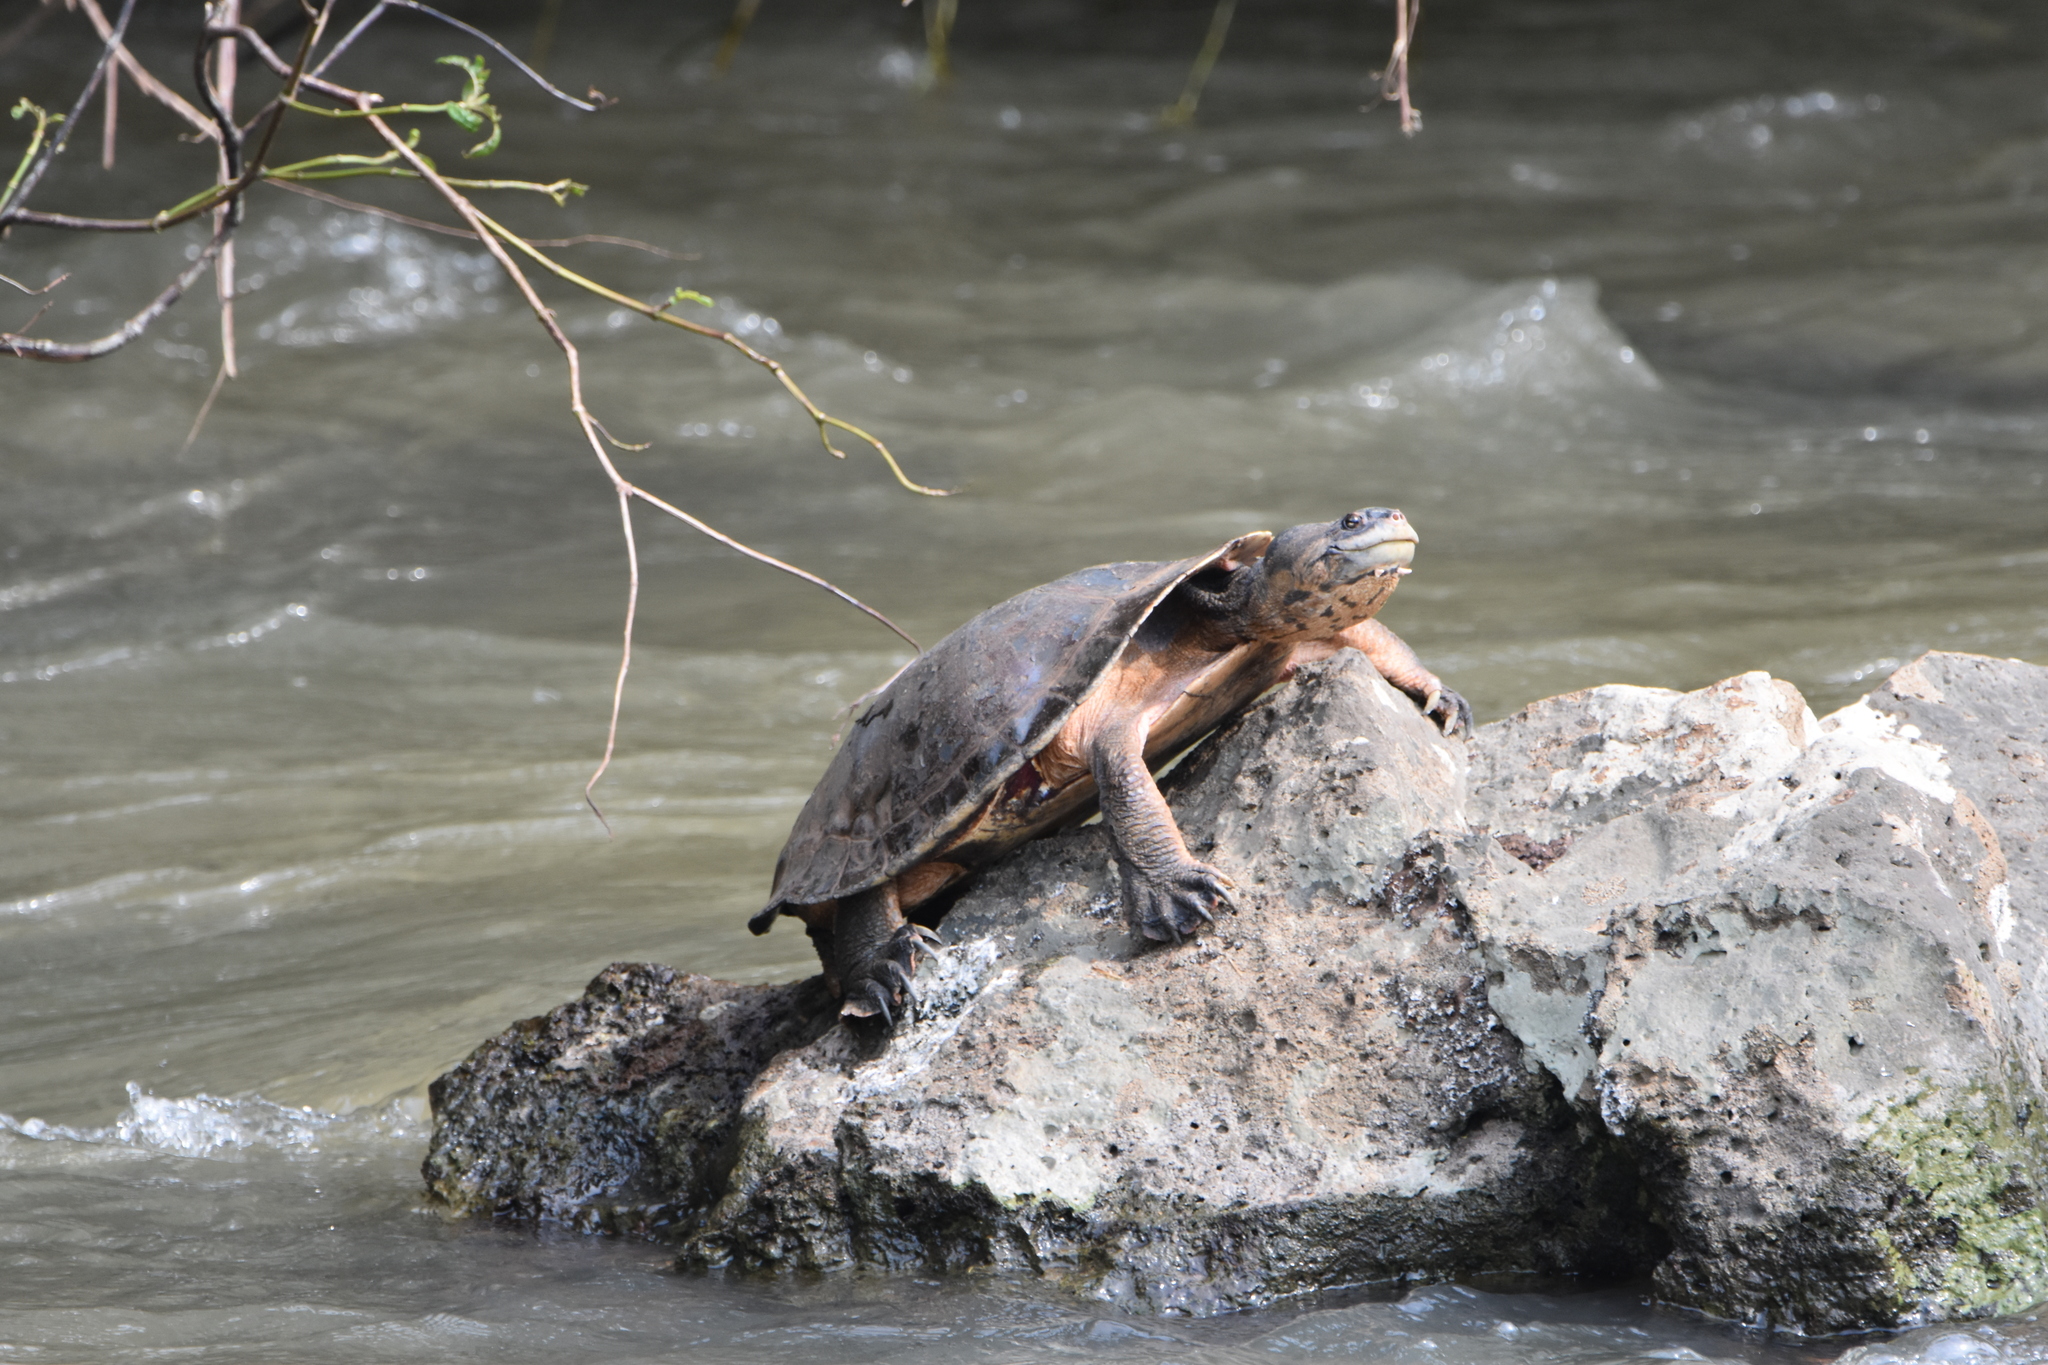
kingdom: Animalia
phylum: Chordata
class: Testudines
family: Chelidae
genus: Phrynops
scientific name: Phrynops geoffroanus
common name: Side-necked turtle of geoffroy
